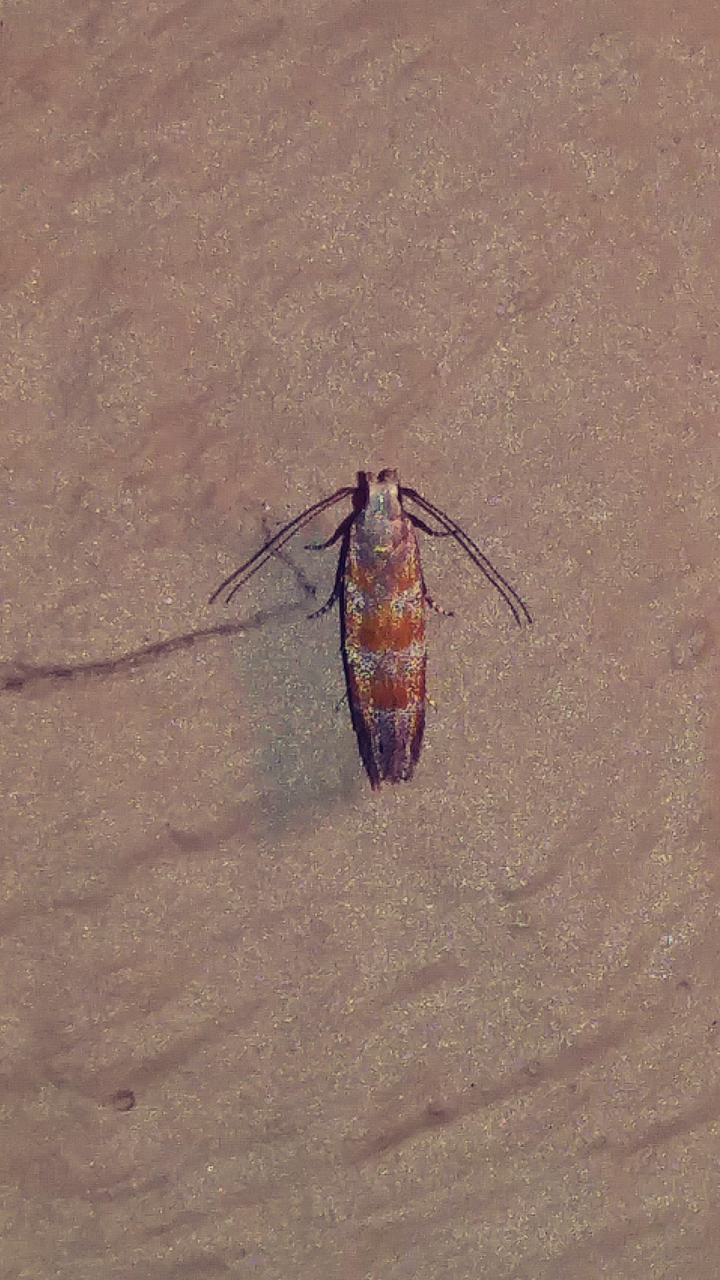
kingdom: Animalia
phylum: Arthropoda
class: Insecta
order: Lepidoptera
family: Gelechiidae
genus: Battaristis
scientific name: Battaristis vittella
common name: Orange stripe-backed moth
